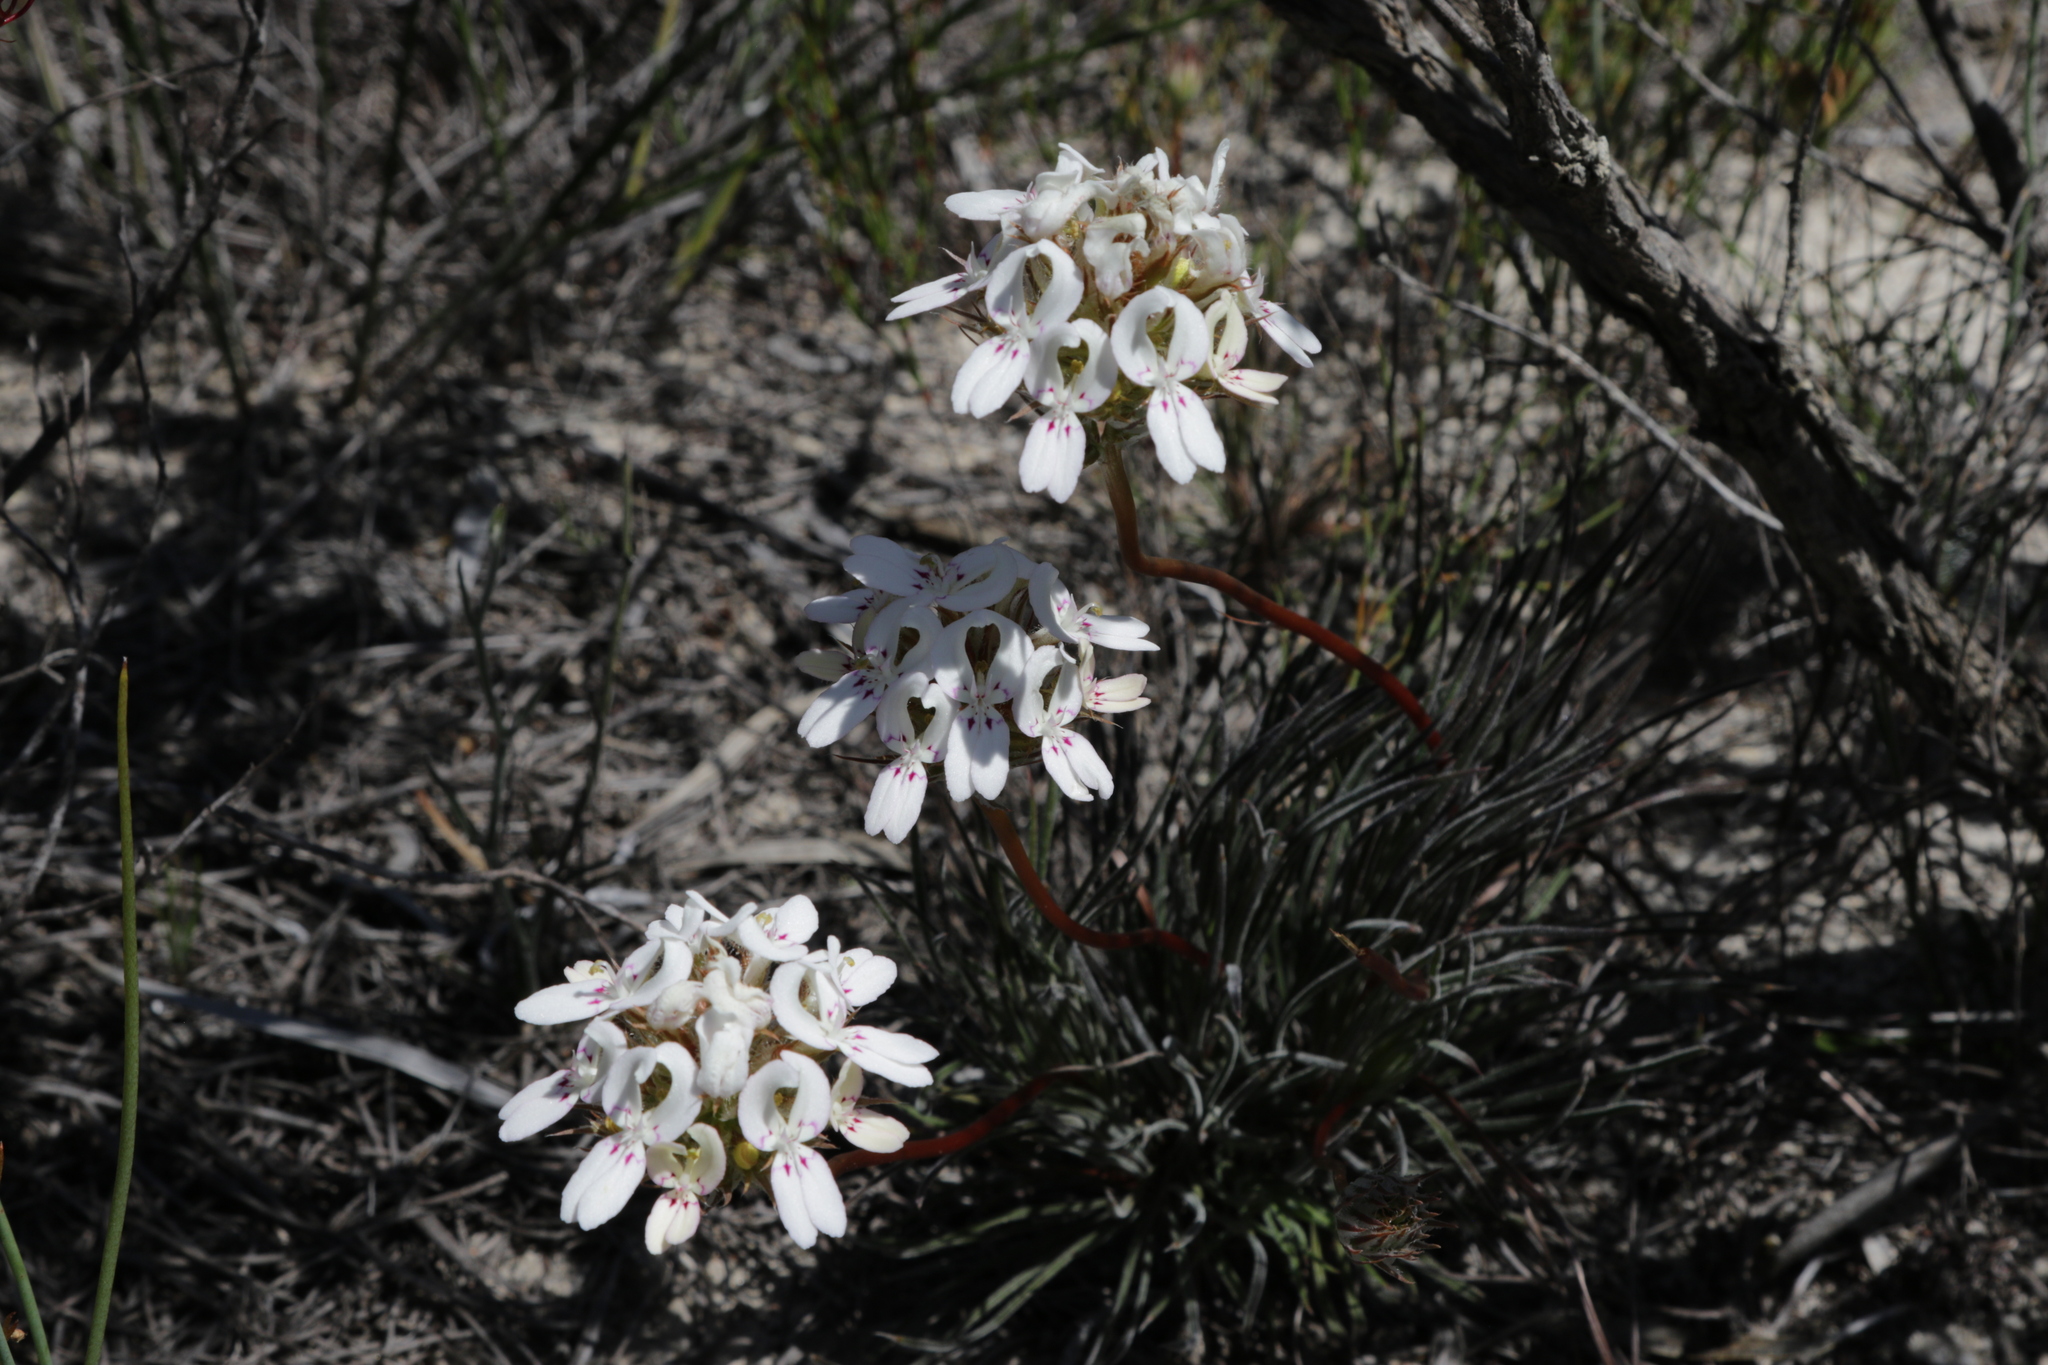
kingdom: Plantae
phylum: Tracheophyta
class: Magnoliopsida
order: Asterales
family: Stylidiaceae
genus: Stylidium
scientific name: Stylidium crossocephalum
